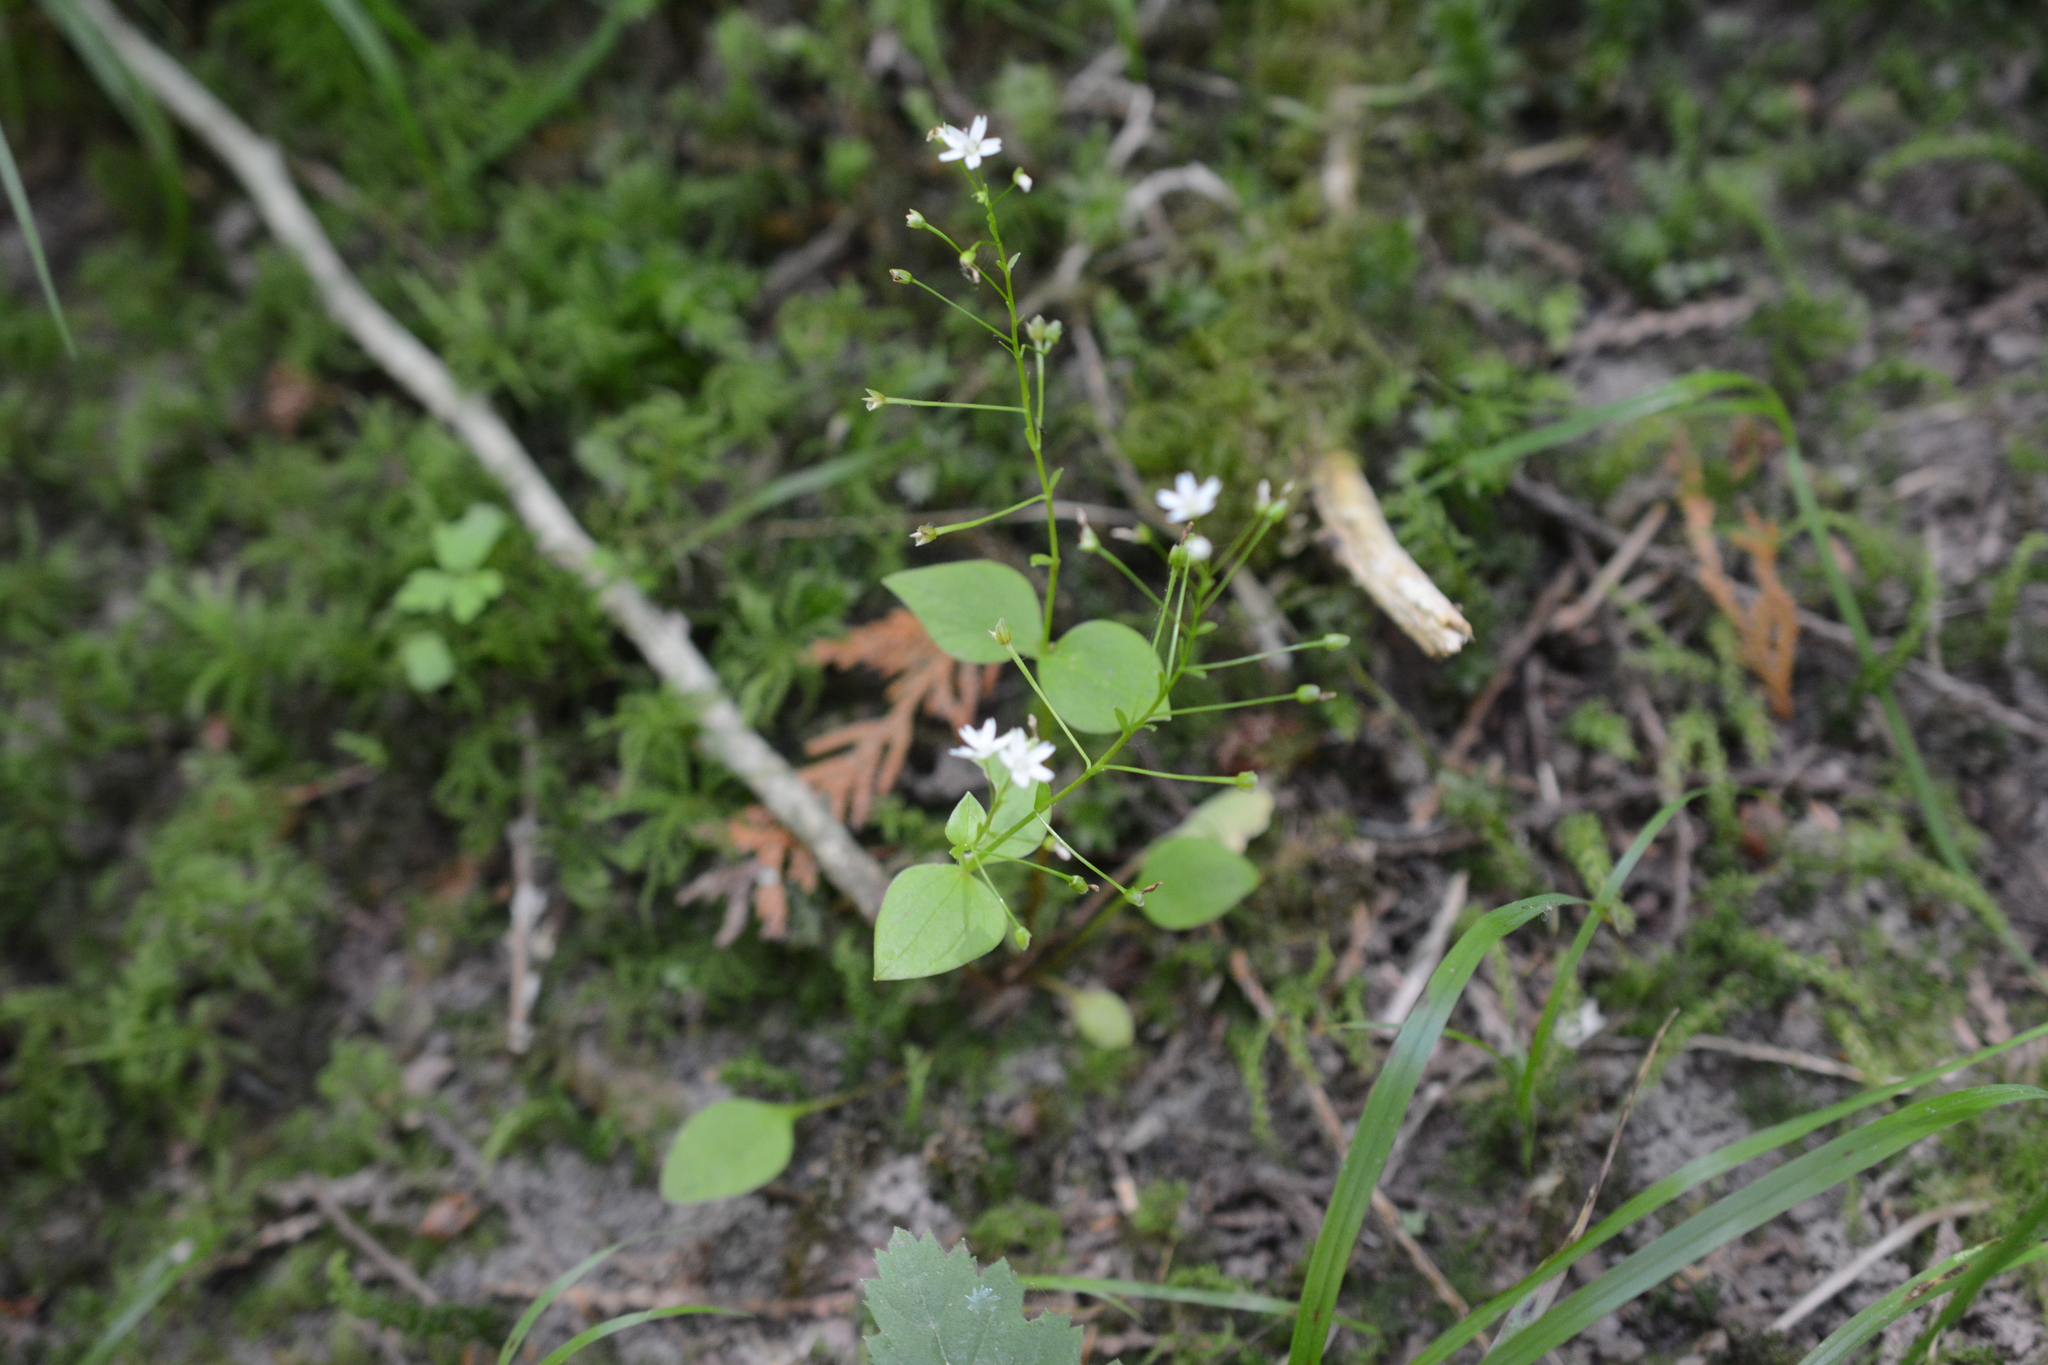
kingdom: Plantae
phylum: Tracheophyta
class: Magnoliopsida
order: Caryophyllales
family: Montiaceae
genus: Claytonia
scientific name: Claytonia sibirica
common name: Pink purslane
